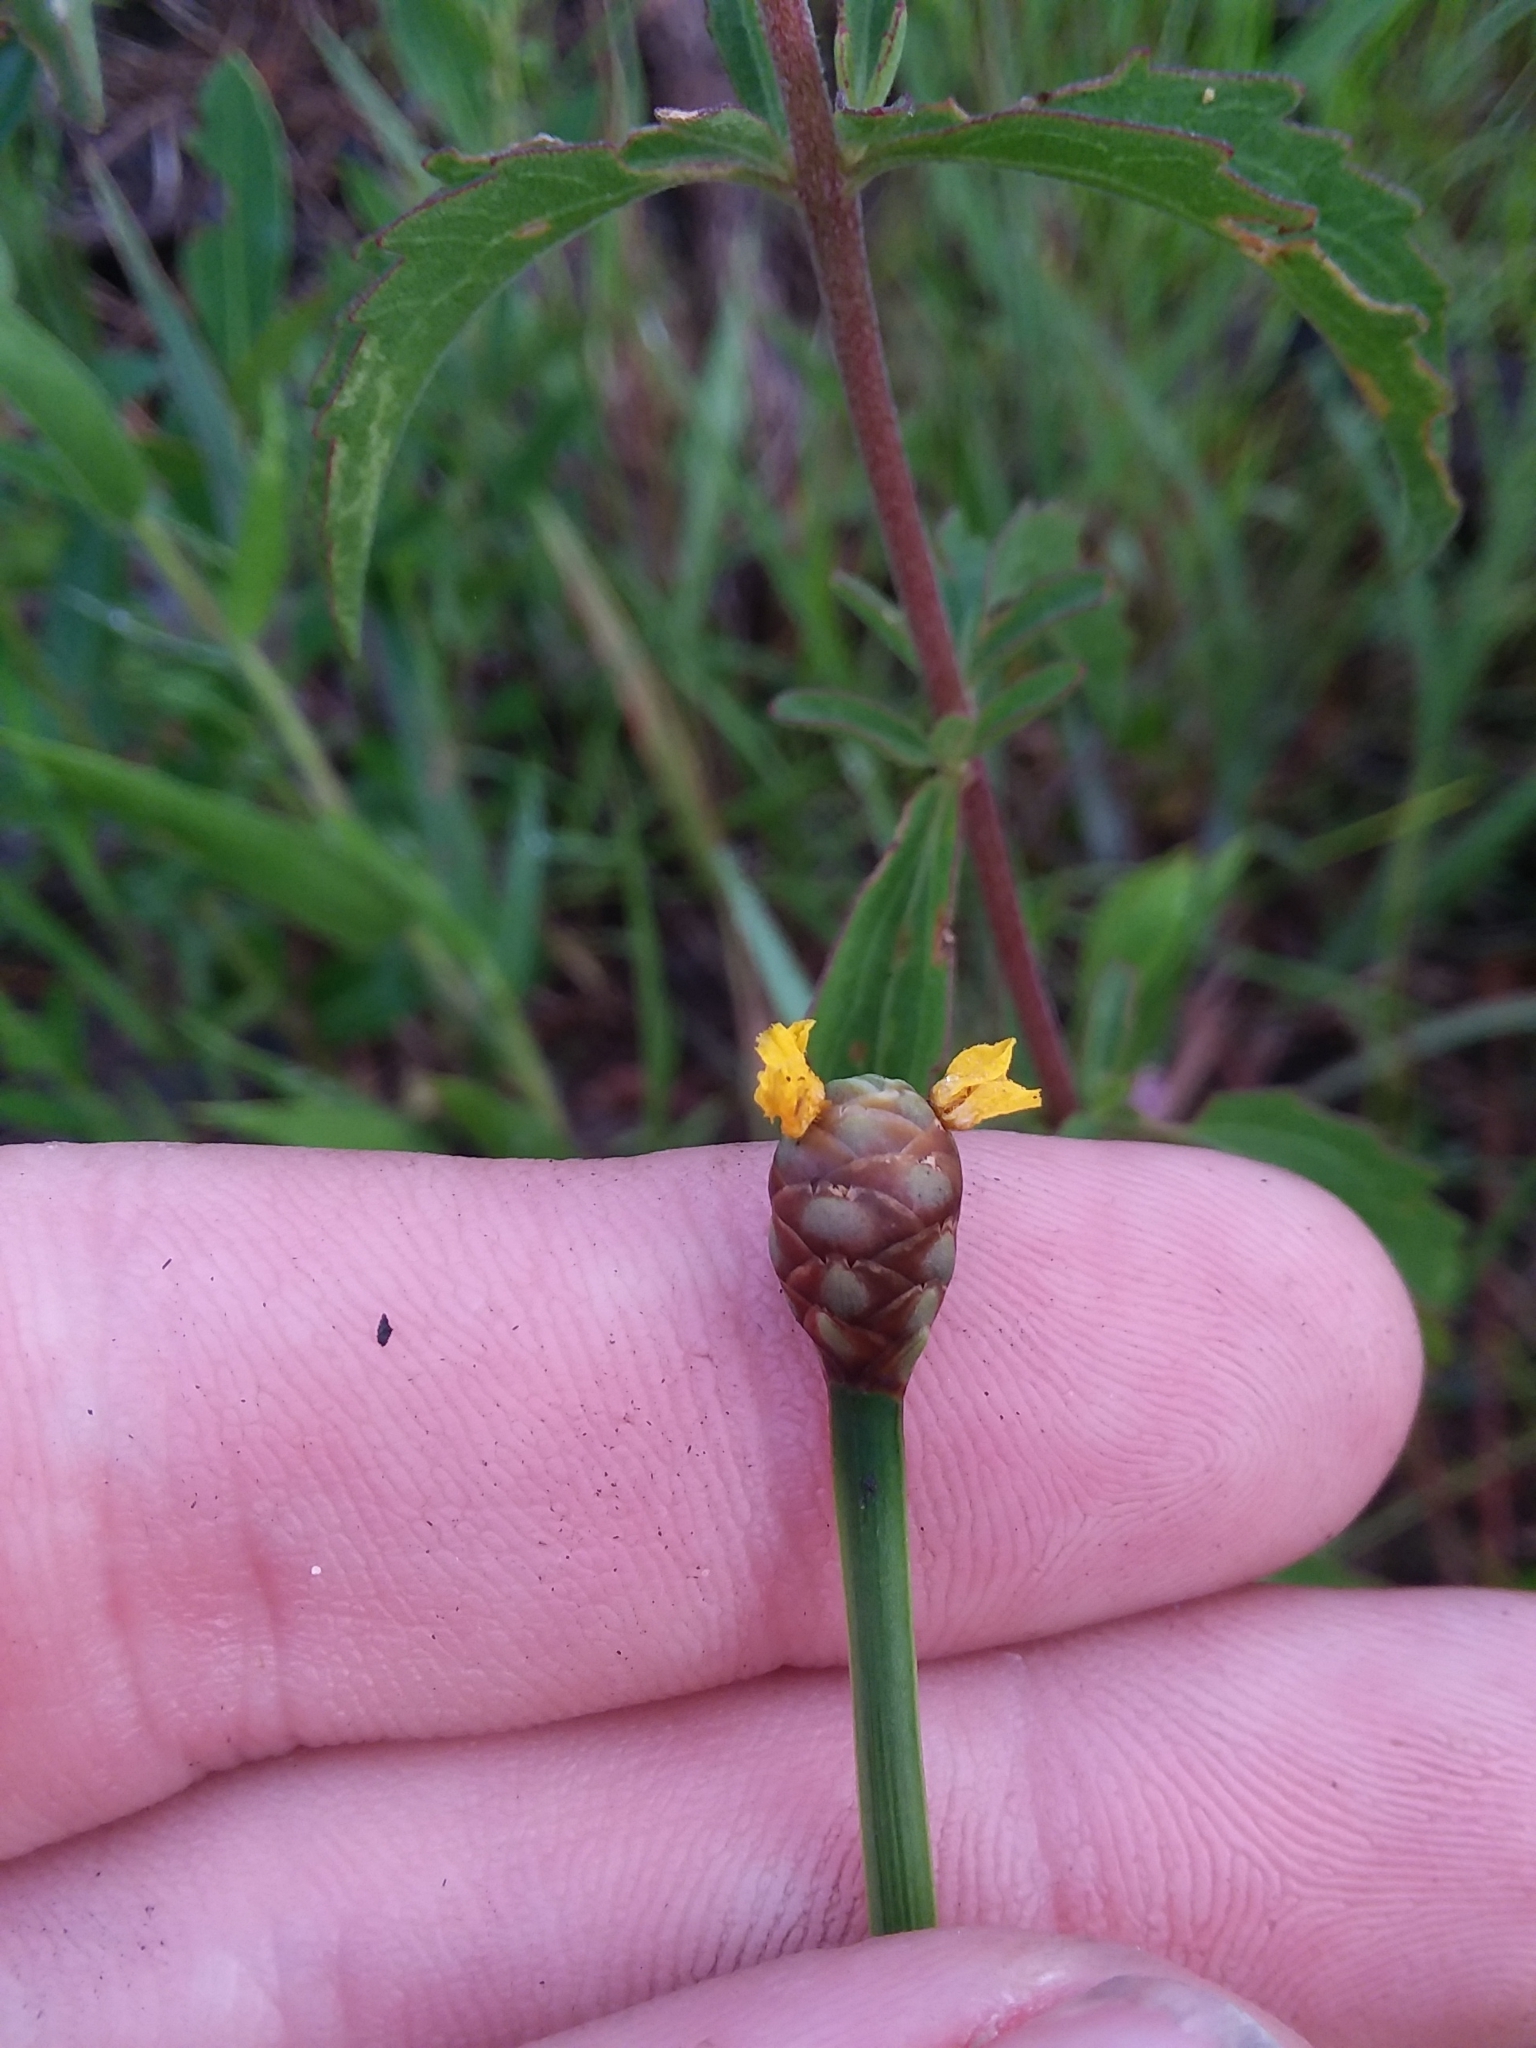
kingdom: Plantae
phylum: Tracheophyta
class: Liliopsida
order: Poales
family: Xyridaceae
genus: Xyris
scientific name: Xyris stricta
